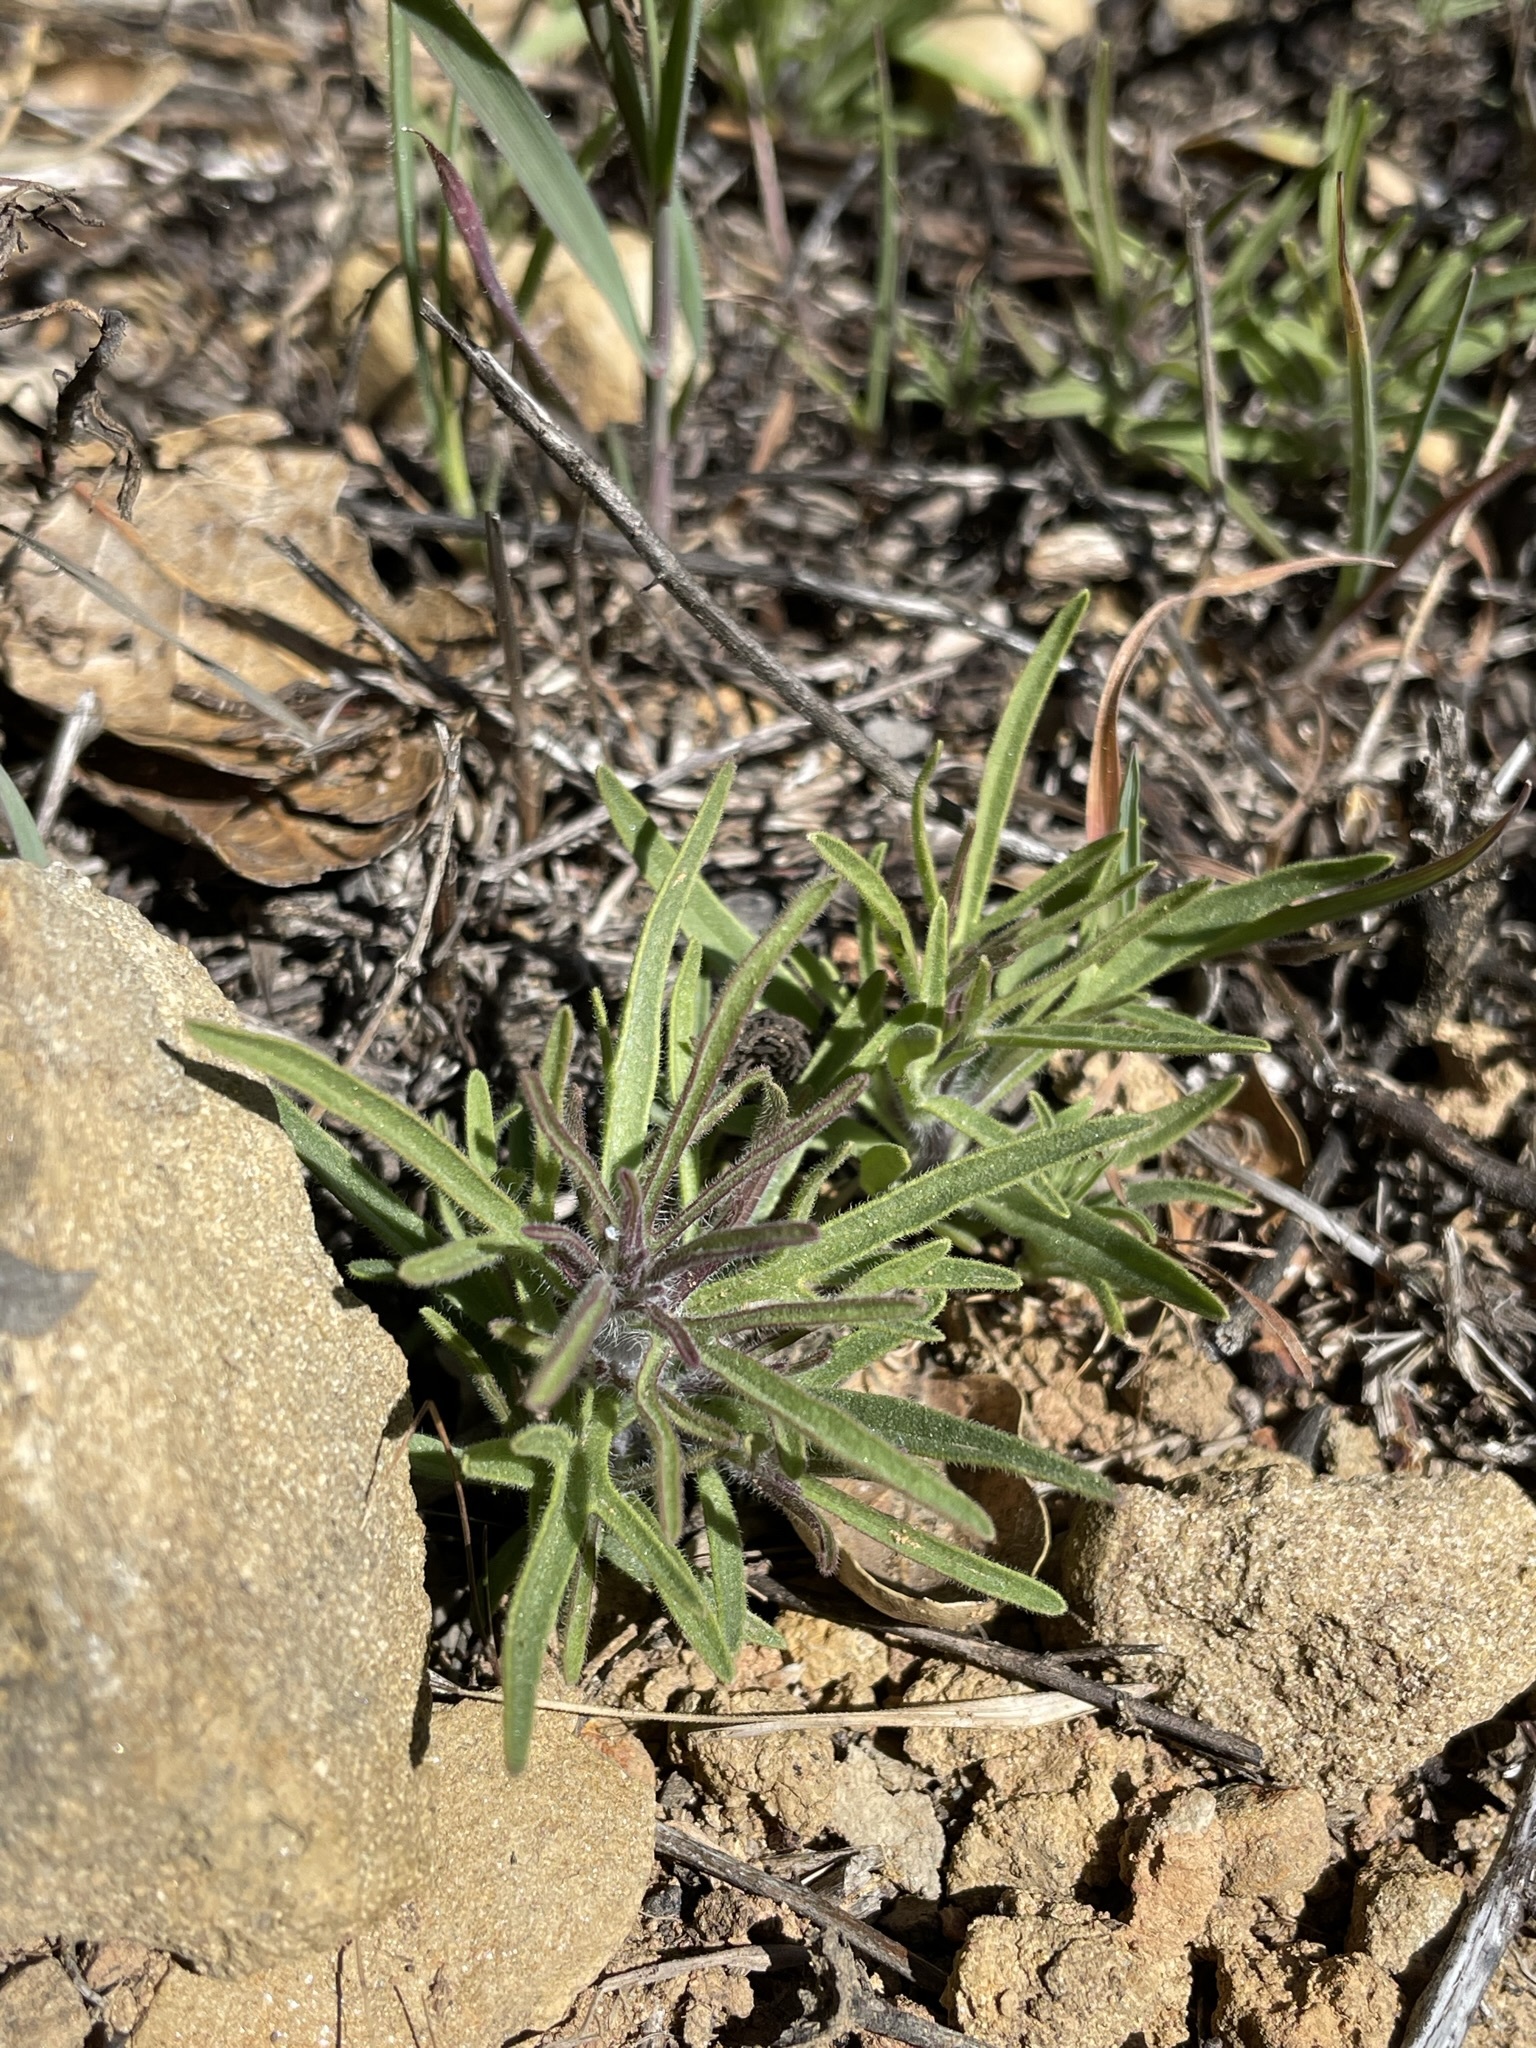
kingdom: Plantae
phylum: Tracheophyta
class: Magnoliopsida
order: Lamiales
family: Orobanchaceae
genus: Cordylanthus
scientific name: Cordylanthus rigidus
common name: Stiff-branch bird's-beak
